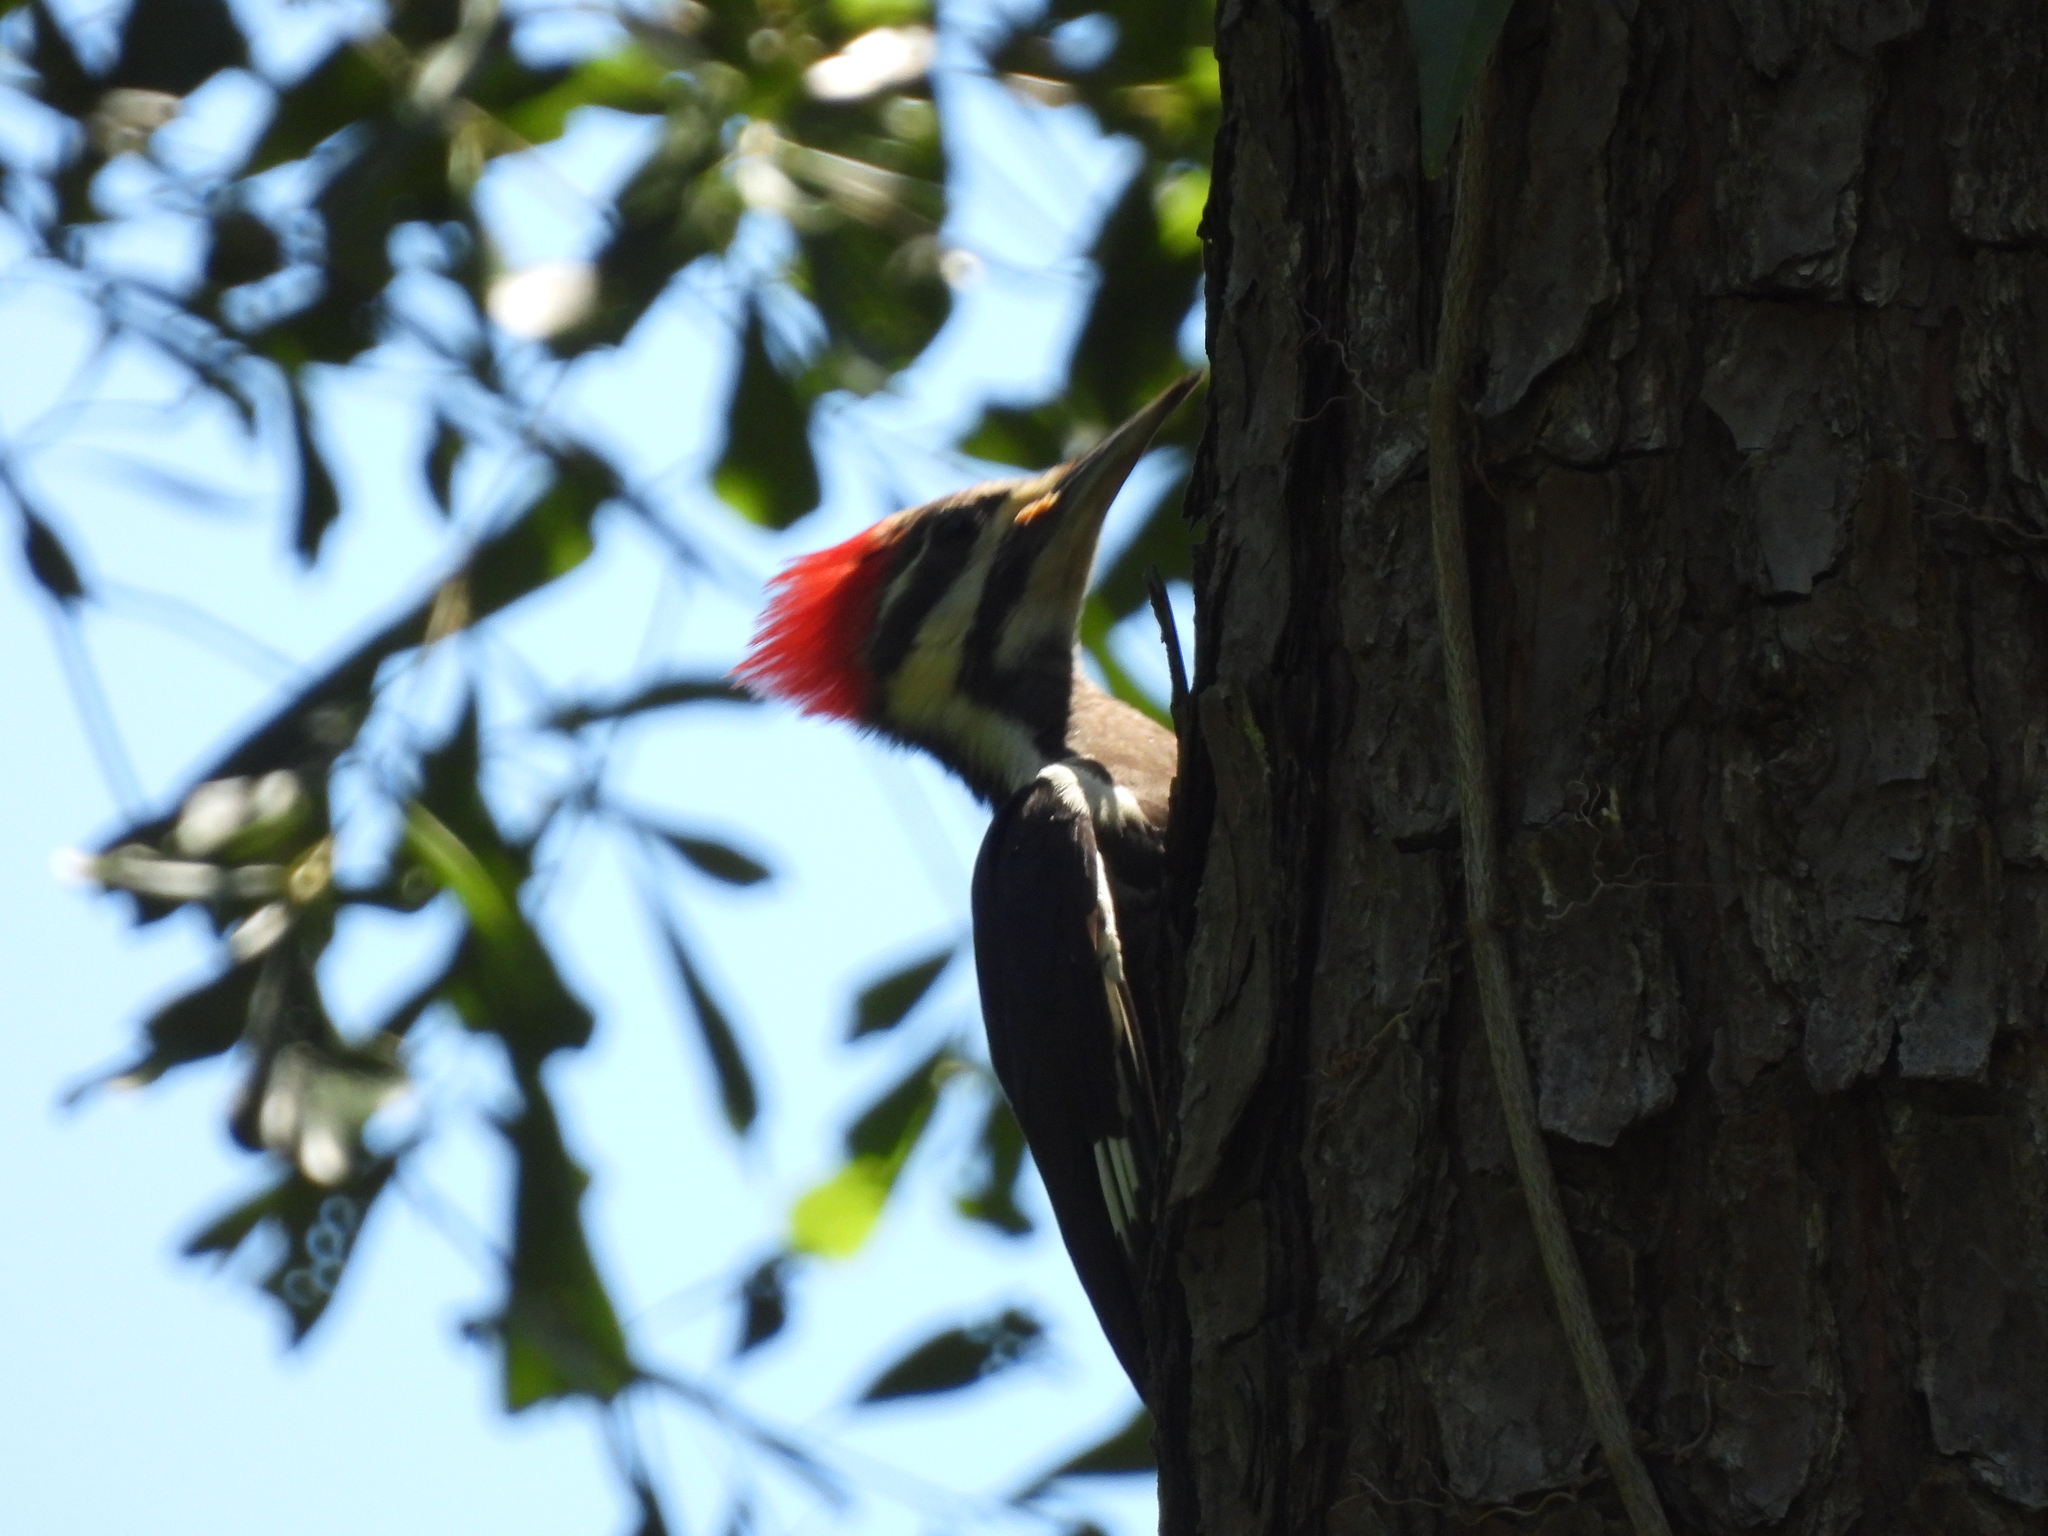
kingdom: Animalia
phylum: Chordata
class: Aves
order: Piciformes
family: Picidae
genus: Dryocopus
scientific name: Dryocopus pileatus
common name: Pileated woodpecker
